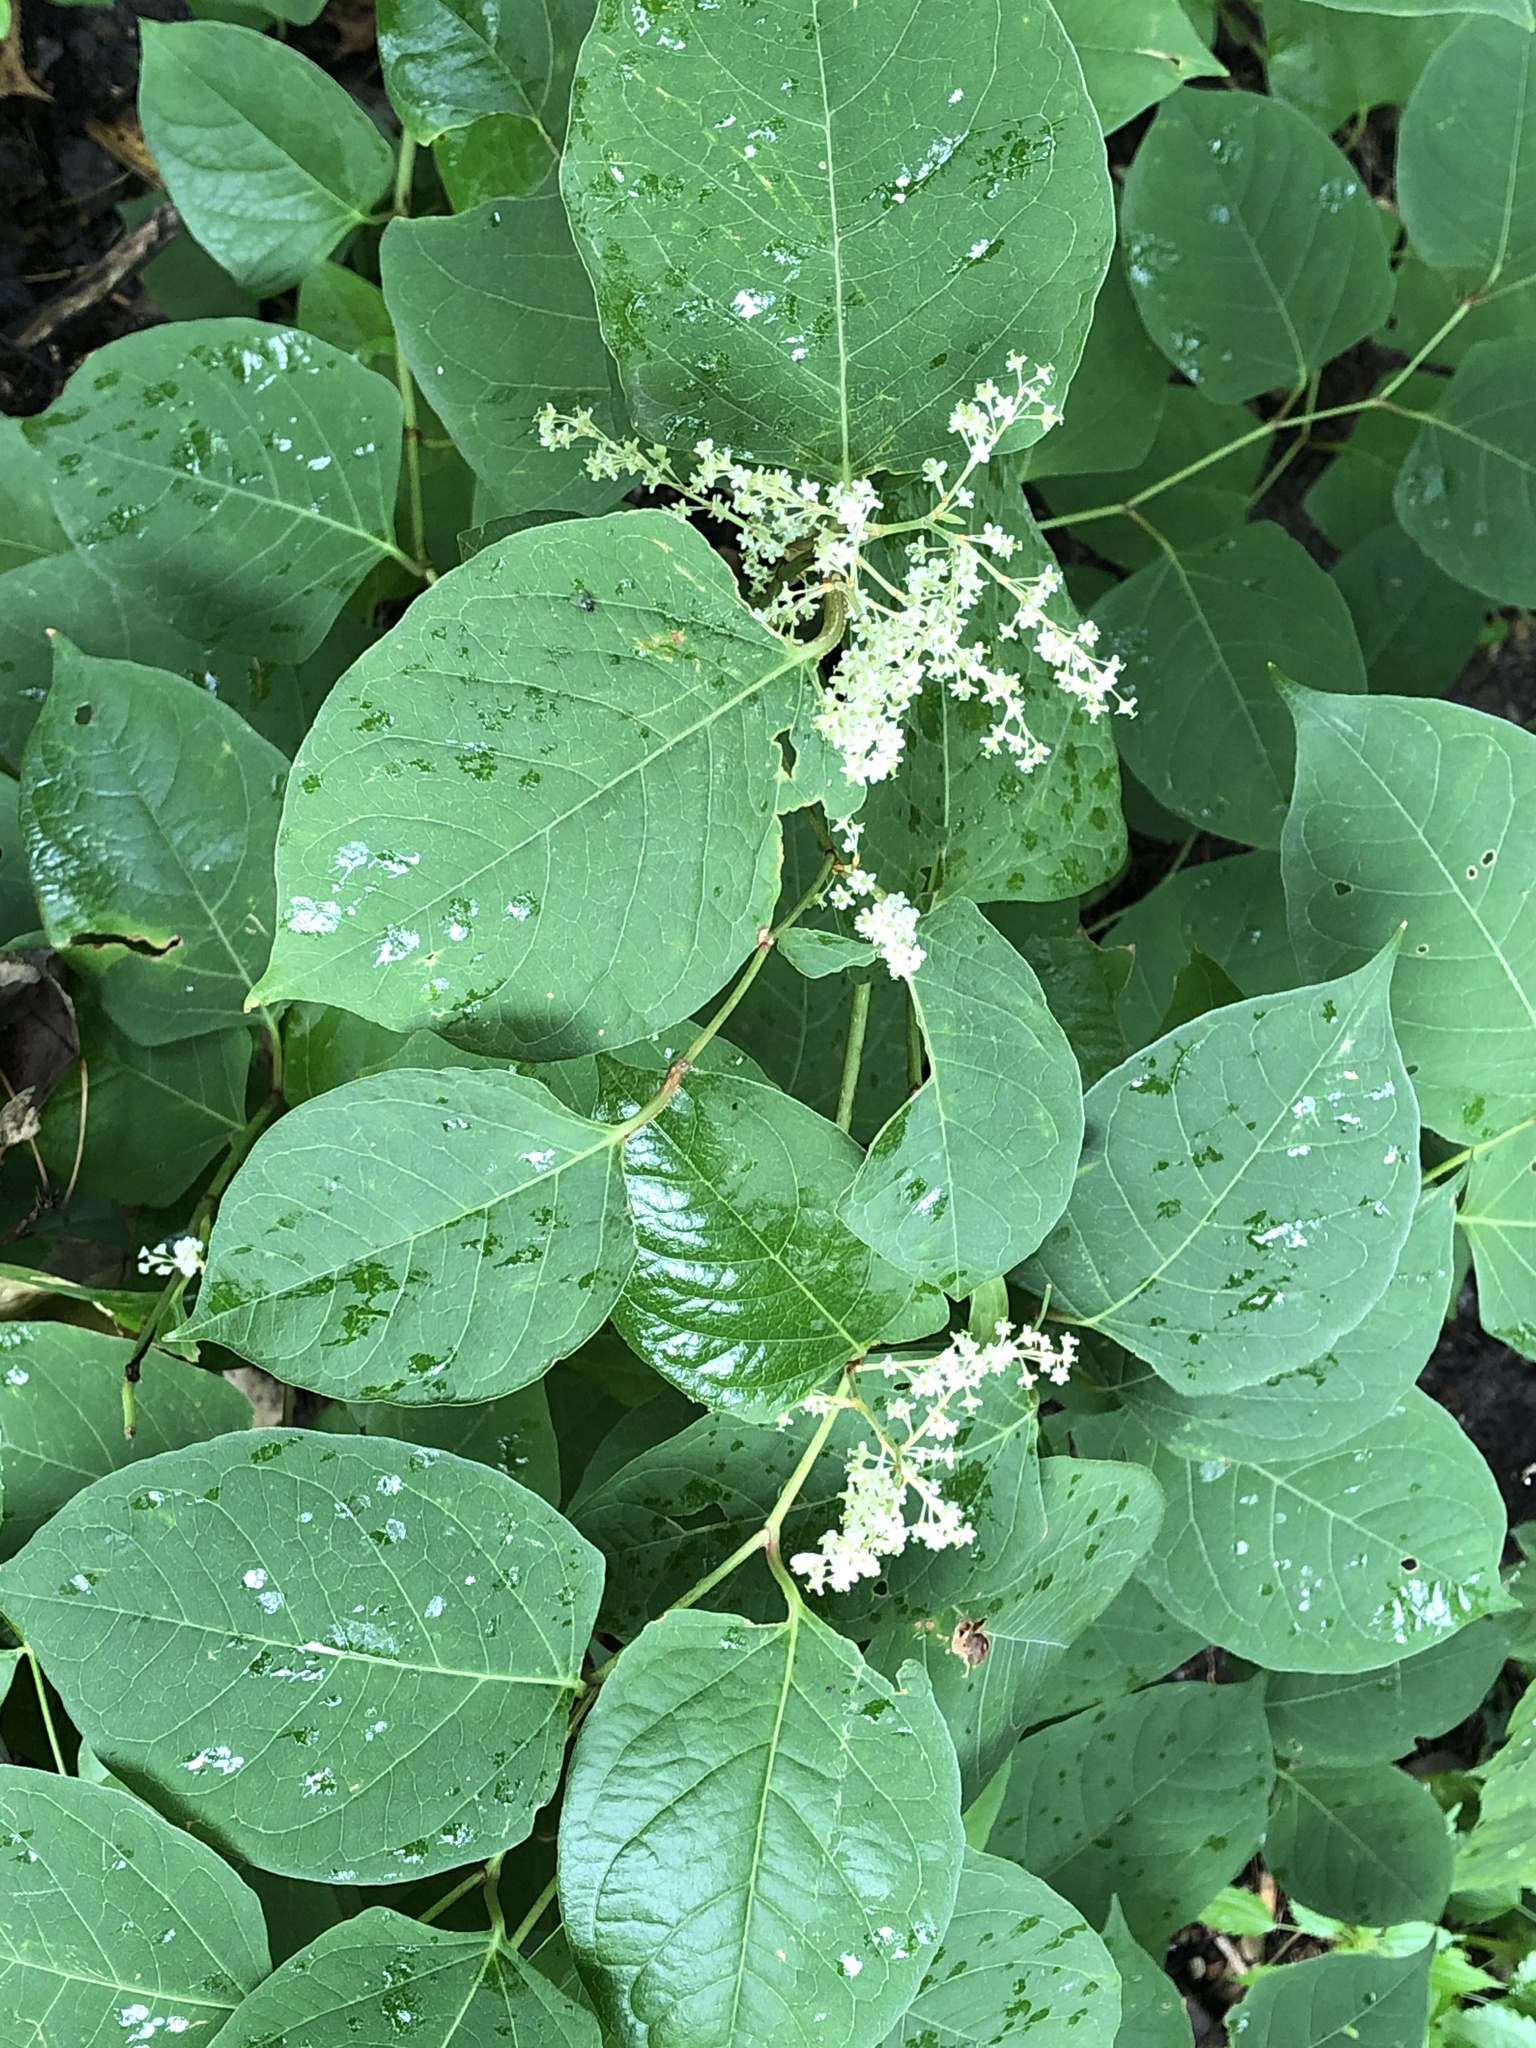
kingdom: Plantae
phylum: Tracheophyta
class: Magnoliopsida
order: Caryophyllales
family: Polygonaceae
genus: Reynoutria
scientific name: Reynoutria japonica
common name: Japanese knotweed
